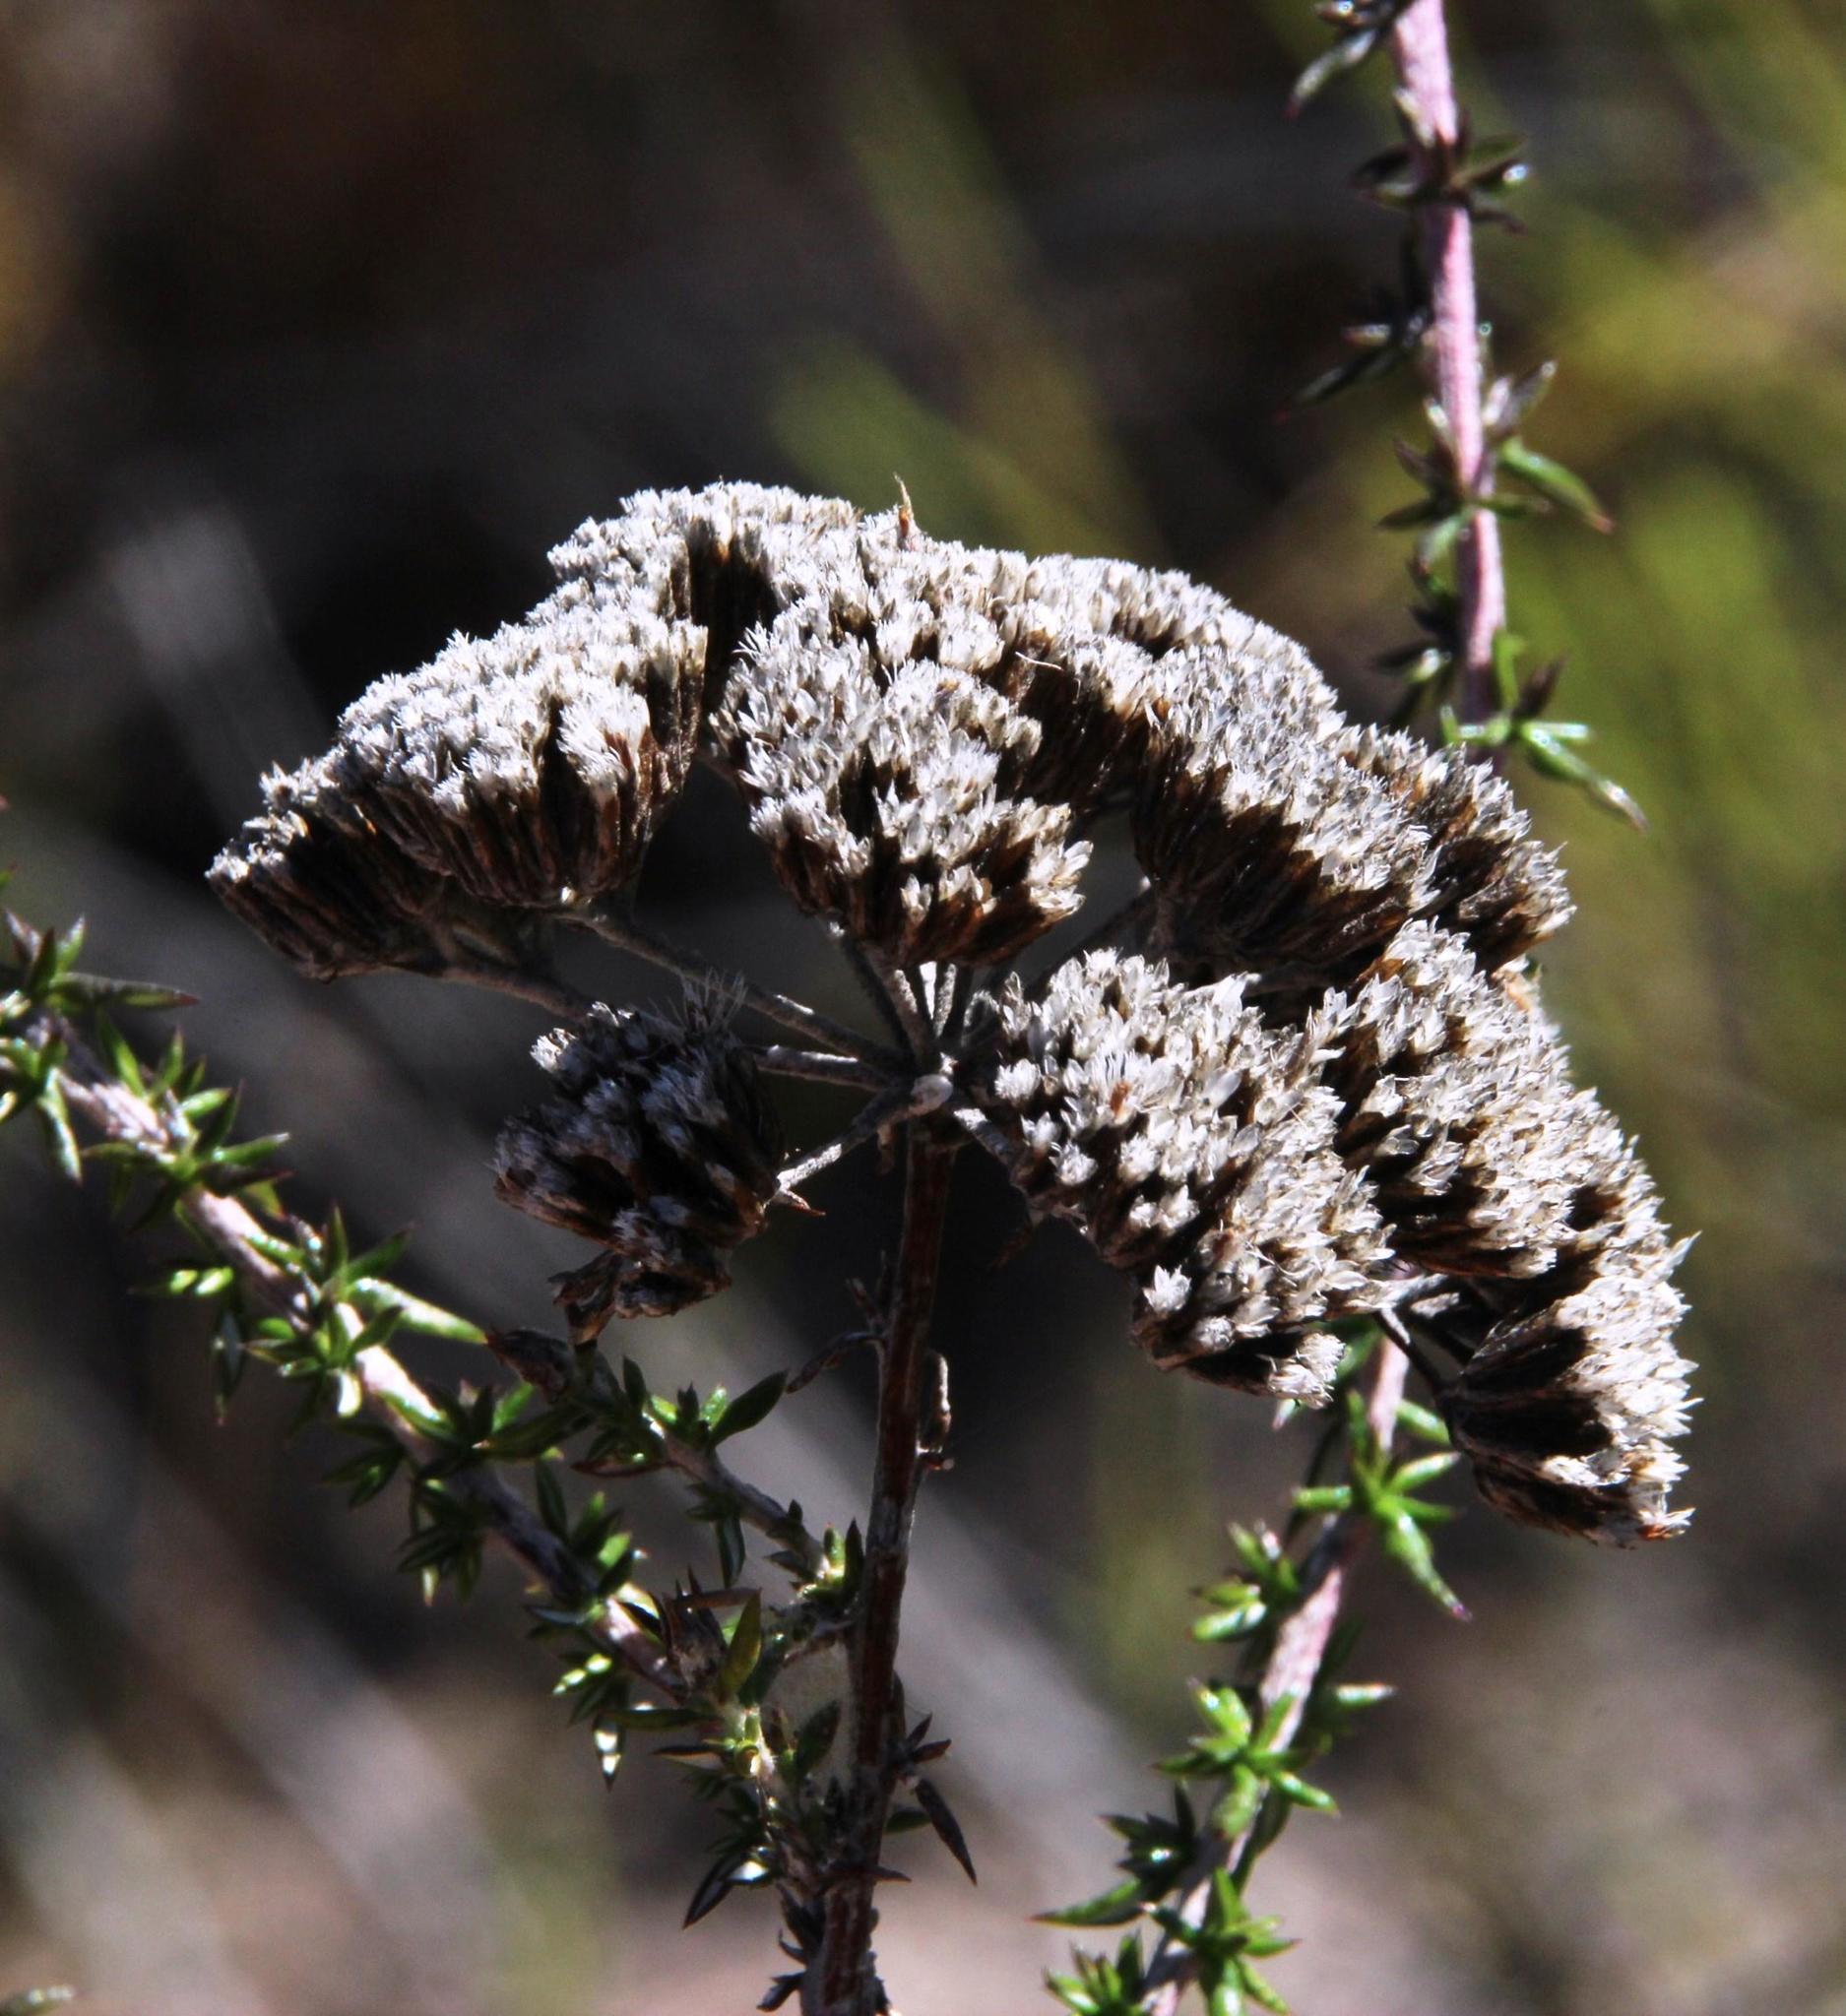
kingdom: Plantae
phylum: Tracheophyta
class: Magnoliopsida
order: Asterales
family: Asteraceae
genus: Metalasia
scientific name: Metalasia densa
